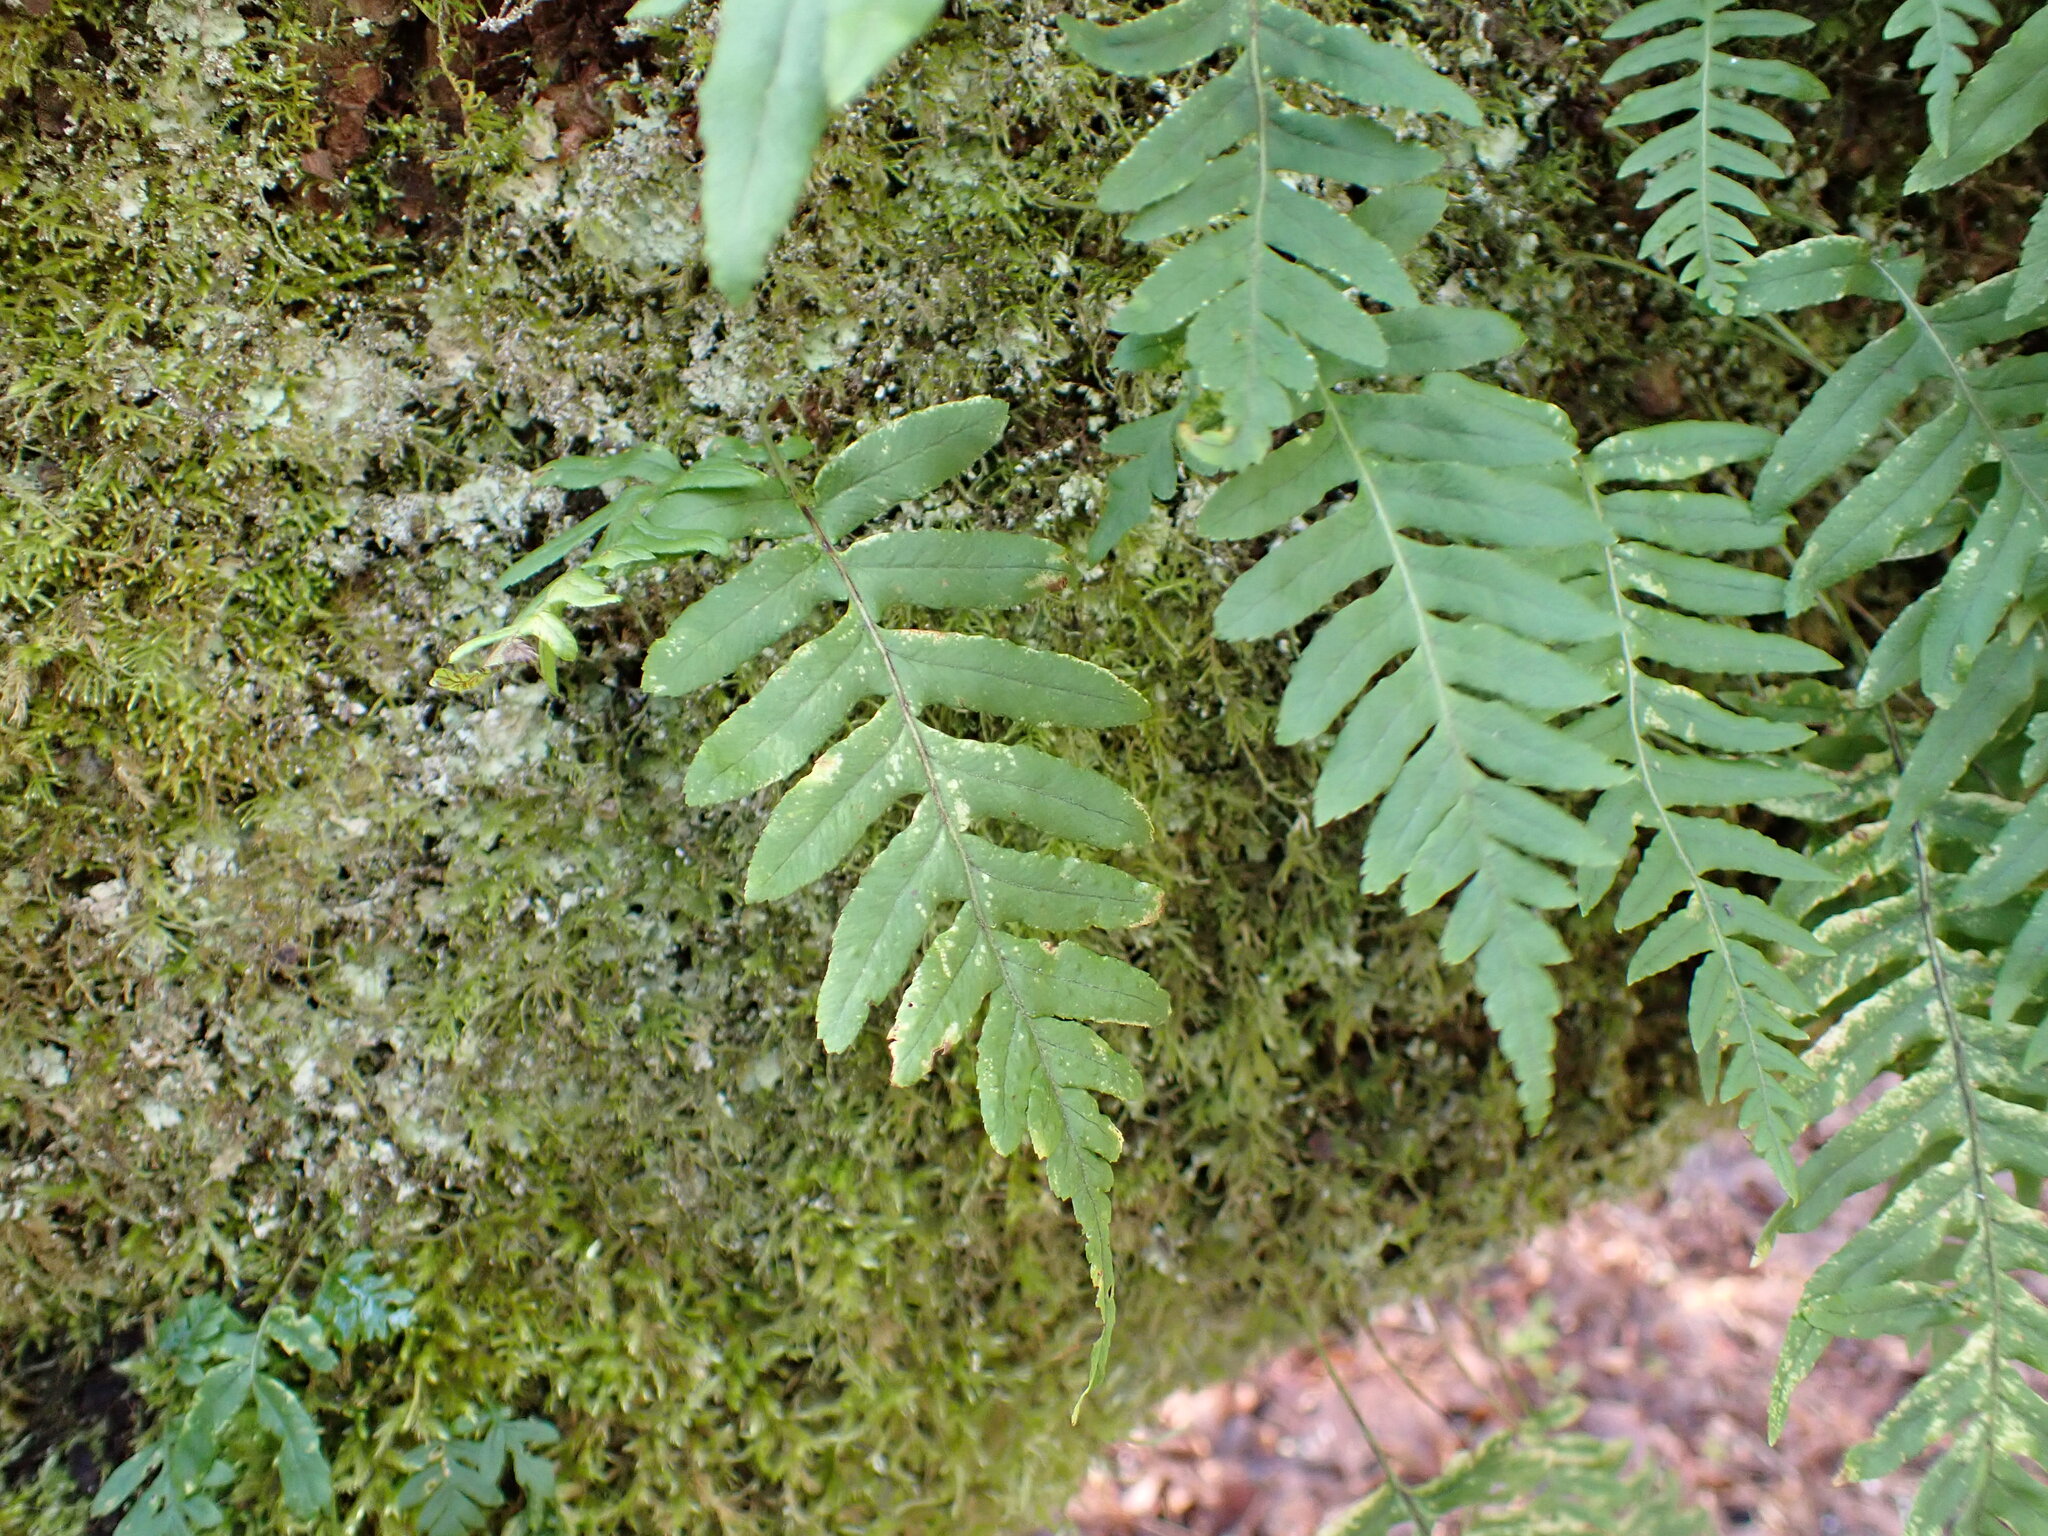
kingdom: Plantae
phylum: Tracheophyta
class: Polypodiopsida
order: Polypodiales
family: Polypodiaceae
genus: Polypodium
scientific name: Polypodium glycyrrhiza
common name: Licorice fern
